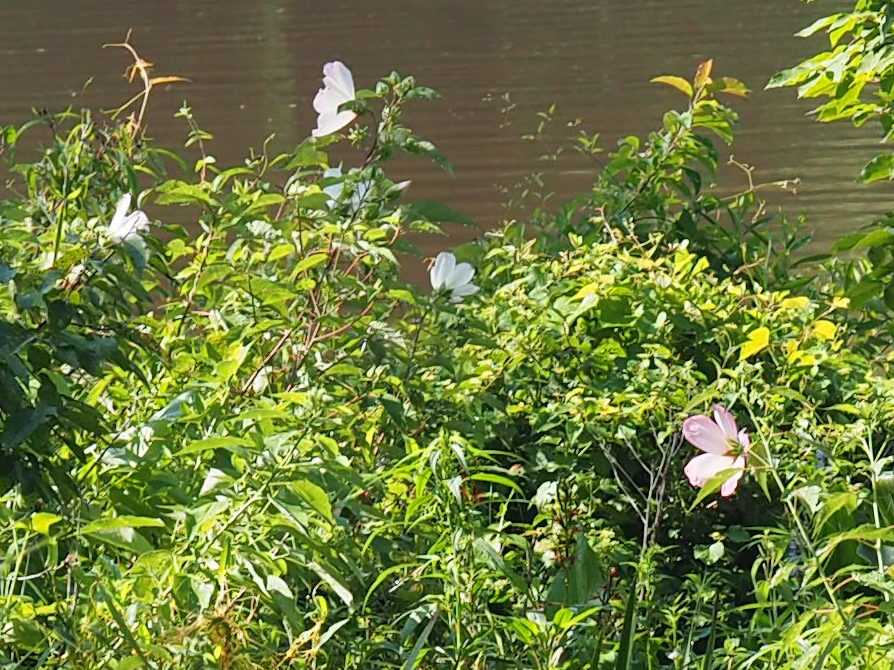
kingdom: Plantae
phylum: Tracheophyta
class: Magnoliopsida
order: Malvales
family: Malvaceae
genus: Hibiscus
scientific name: Hibiscus moscheutos
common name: Common rose-mallow
